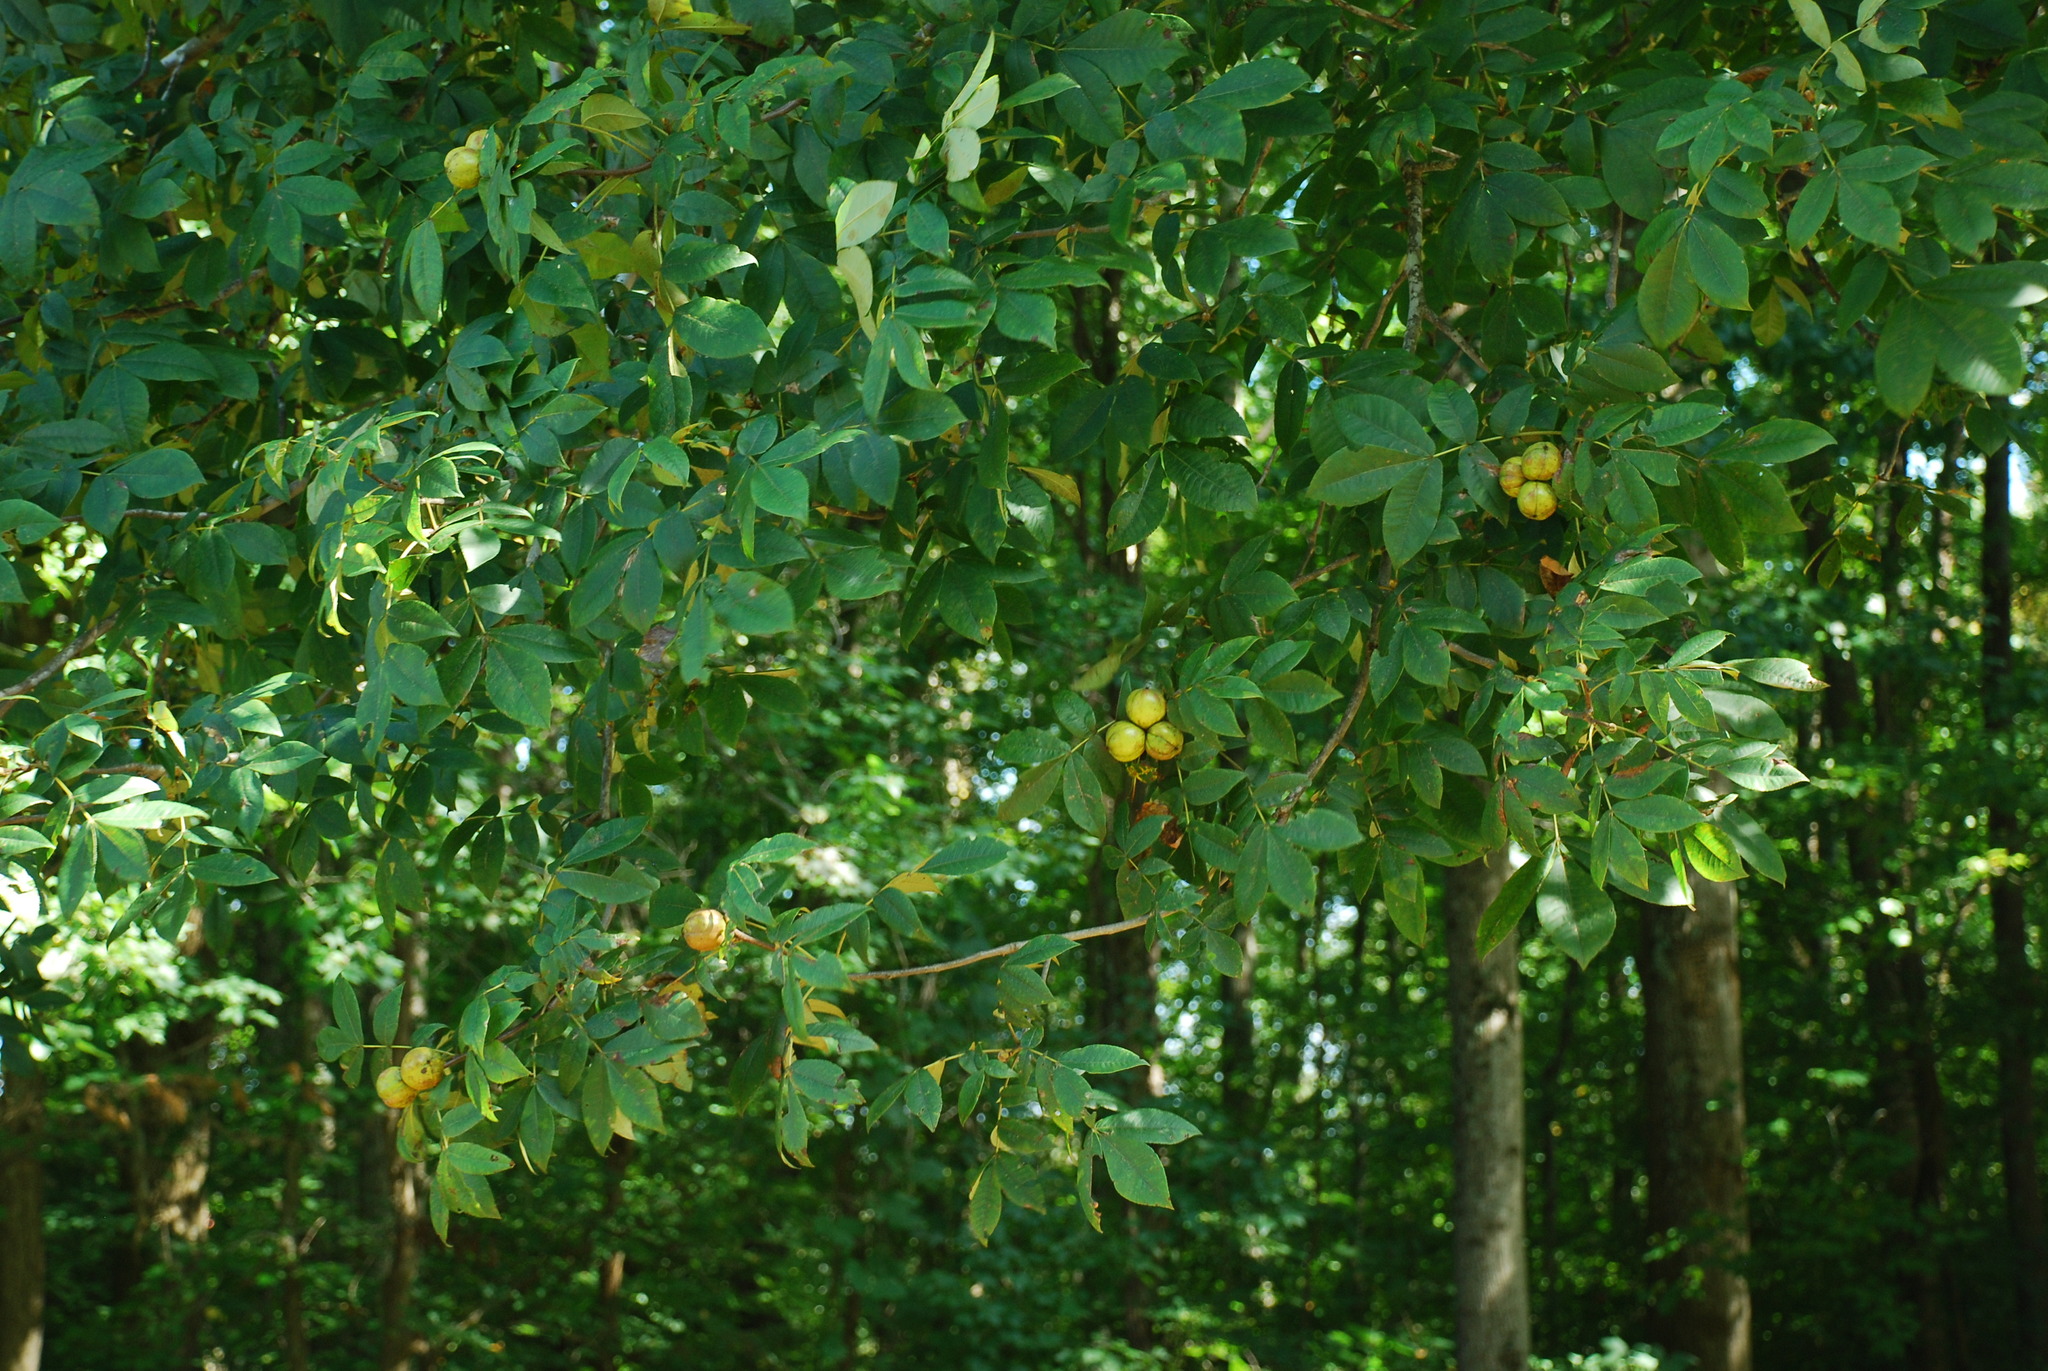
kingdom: Plantae
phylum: Tracheophyta
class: Magnoliopsida
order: Fagales
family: Juglandaceae
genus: Carya
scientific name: Carya alba
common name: Mockernut hickory
